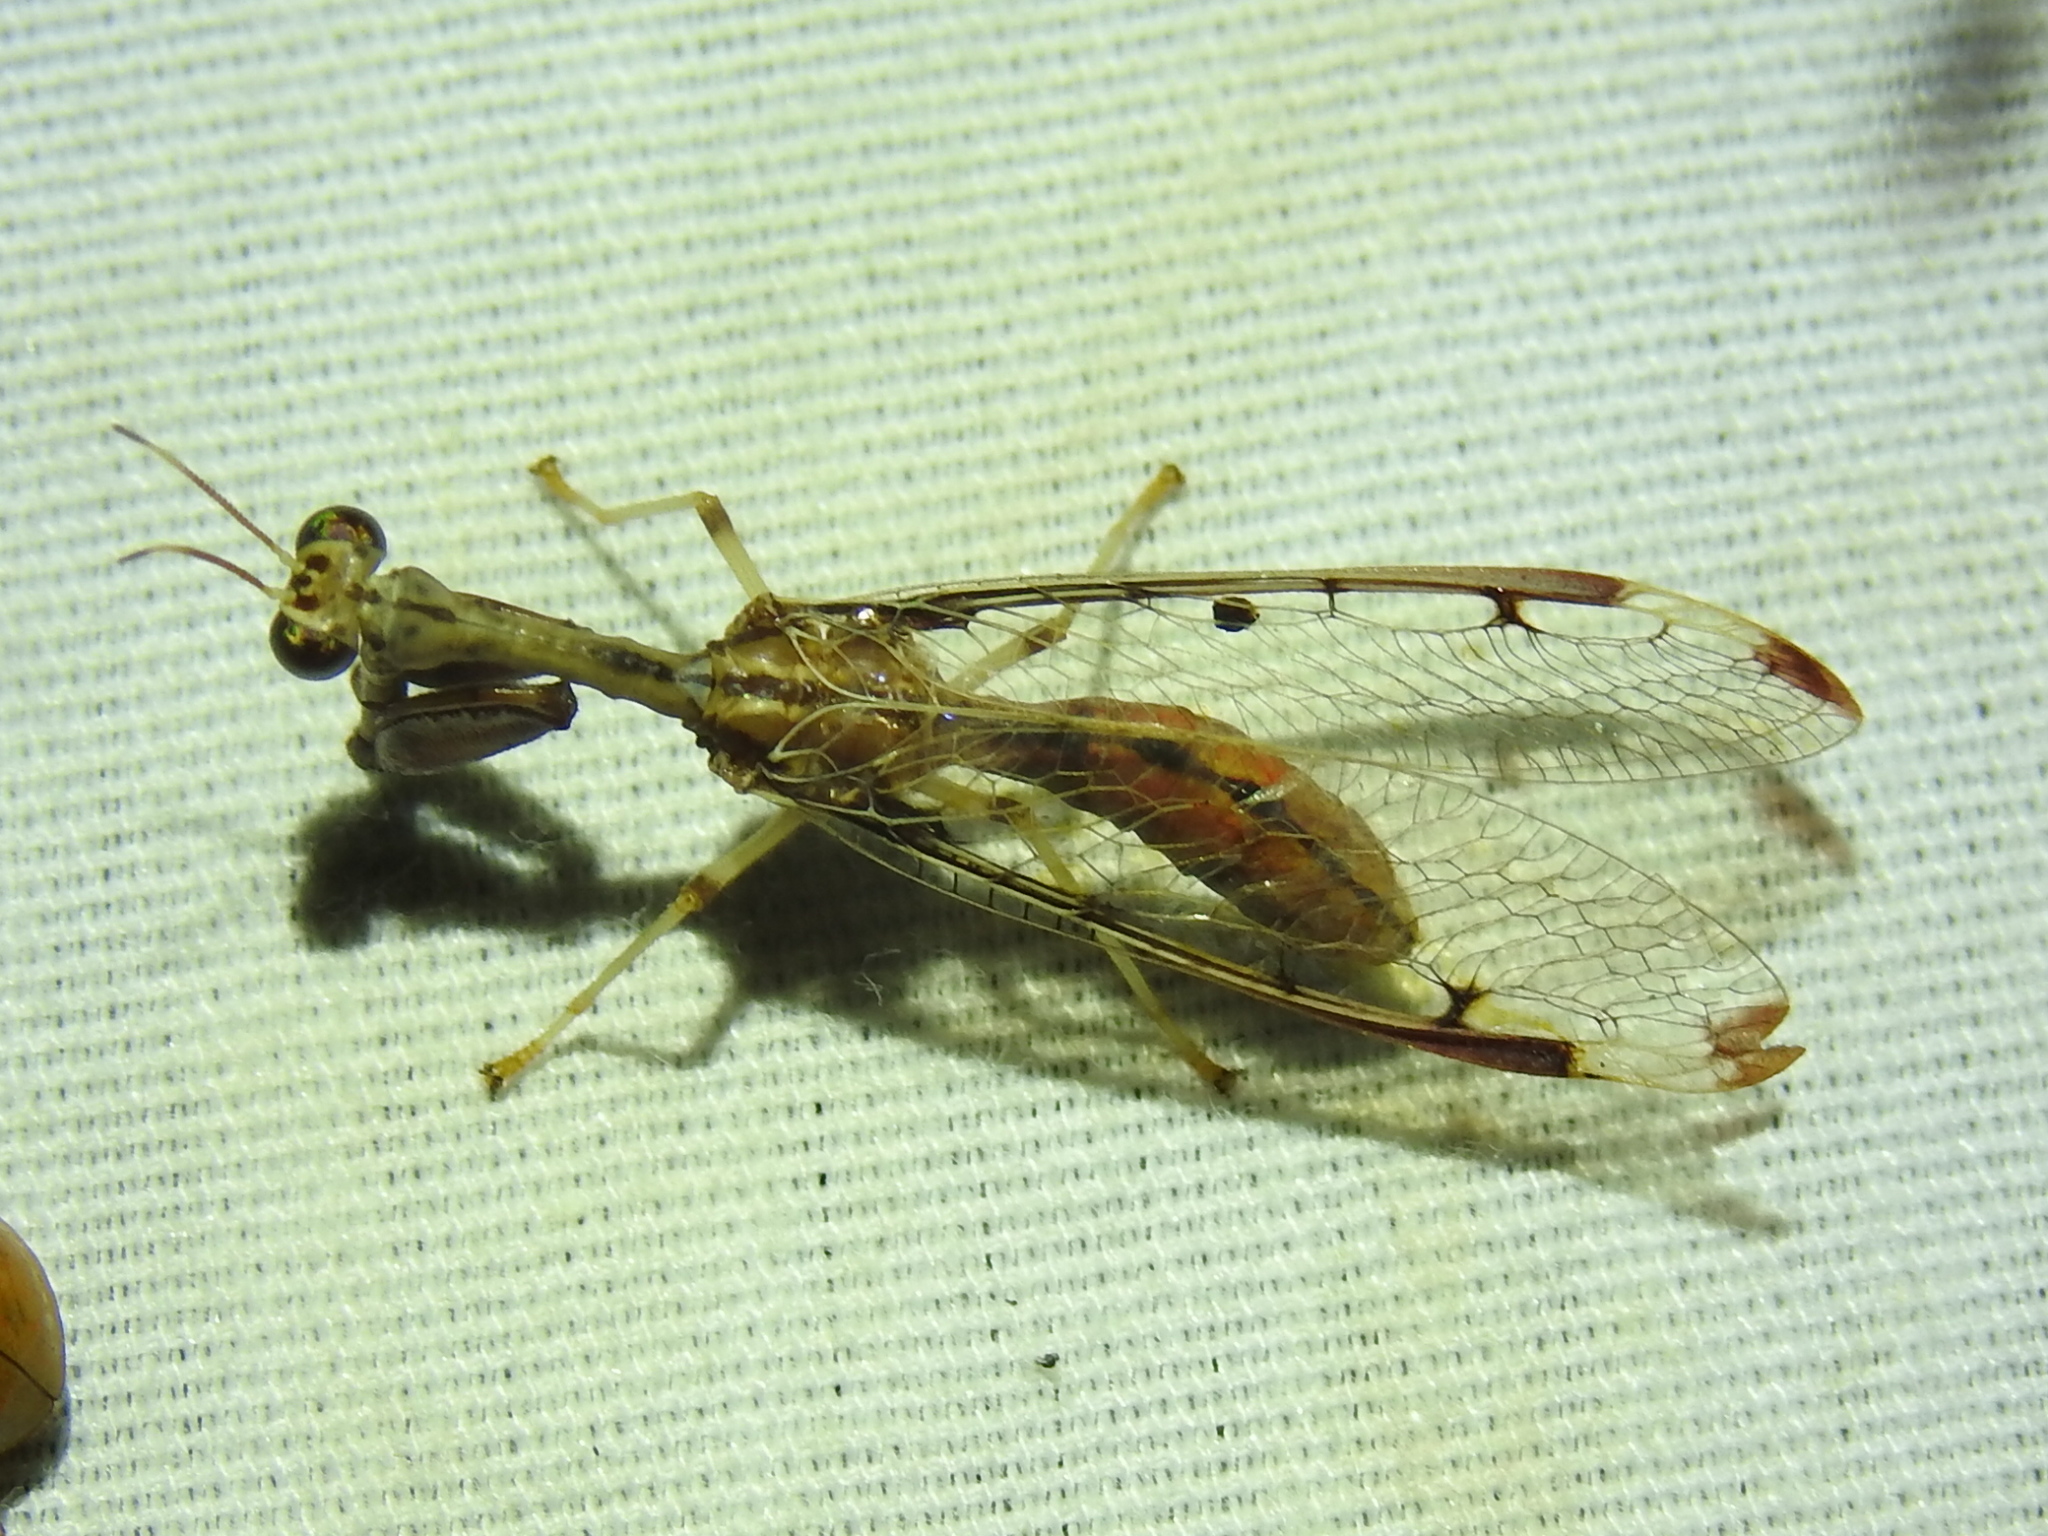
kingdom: Animalia
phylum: Arthropoda
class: Insecta
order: Neuroptera
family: Mantispidae
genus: Dicromantispa
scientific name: Dicromantispa interrupta
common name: Four-spotted mantidfly
